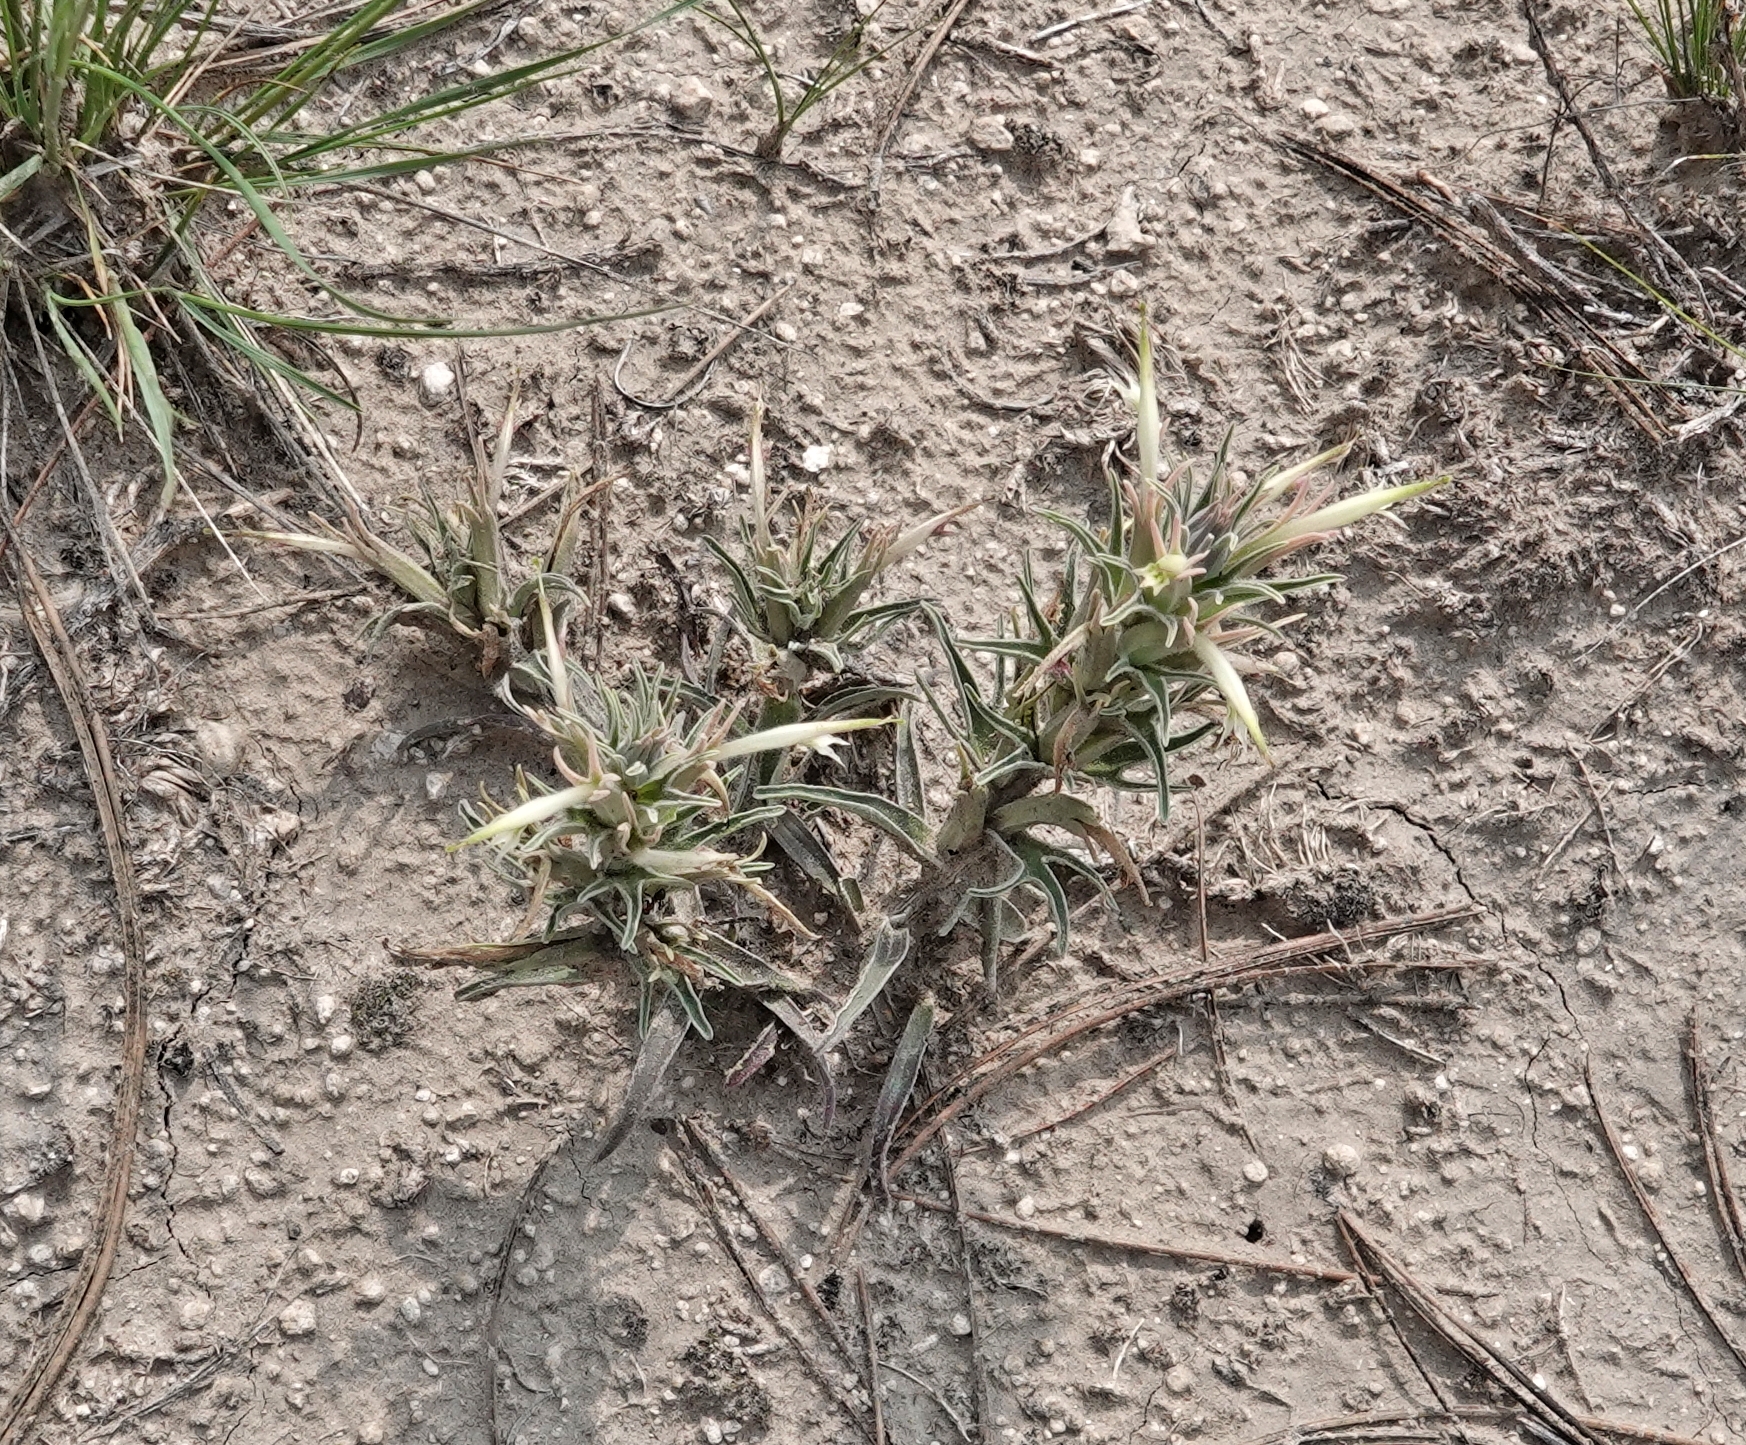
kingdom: Plantae
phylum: Tracheophyta
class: Magnoliopsida
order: Lamiales
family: Orobanchaceae
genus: Castilleja
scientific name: Castilleja sessiliflora
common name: Downy paintbrush
